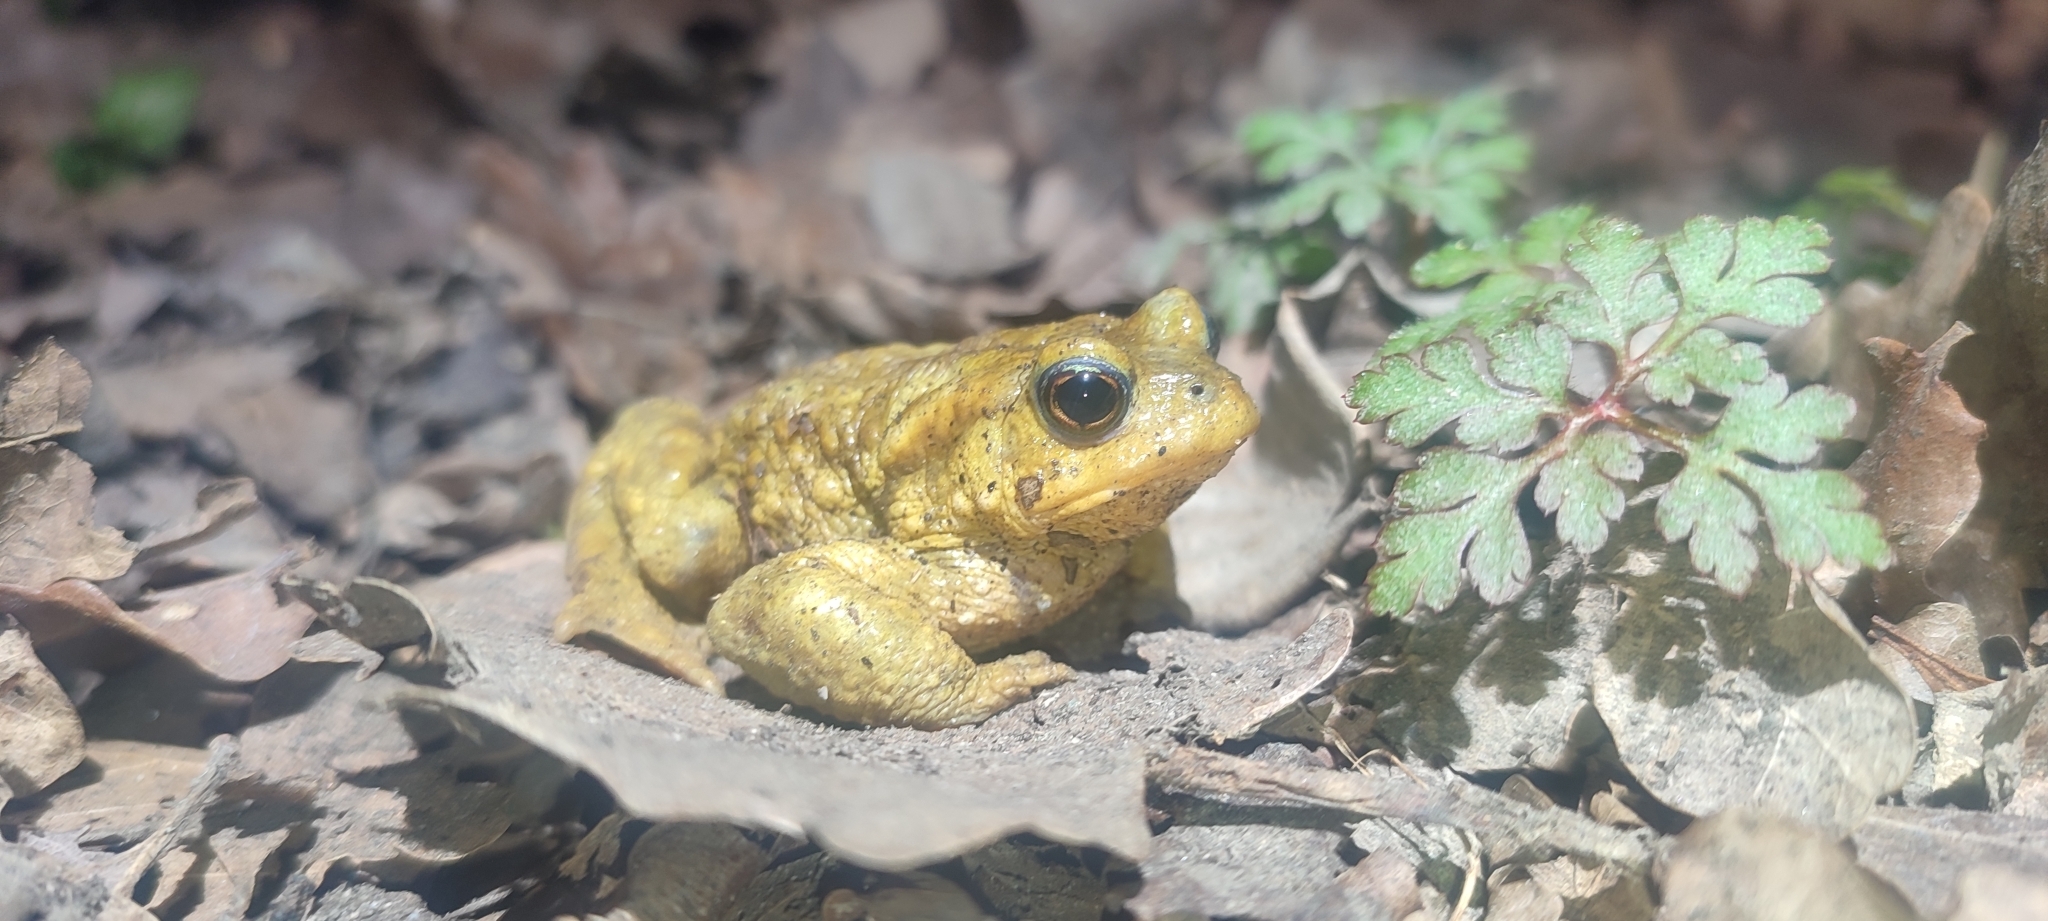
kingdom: Animalia
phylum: Chordata
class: Amphibia
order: Anura
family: Bufonidae
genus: Bufo
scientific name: Bufo spinosus
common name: Western common toad
